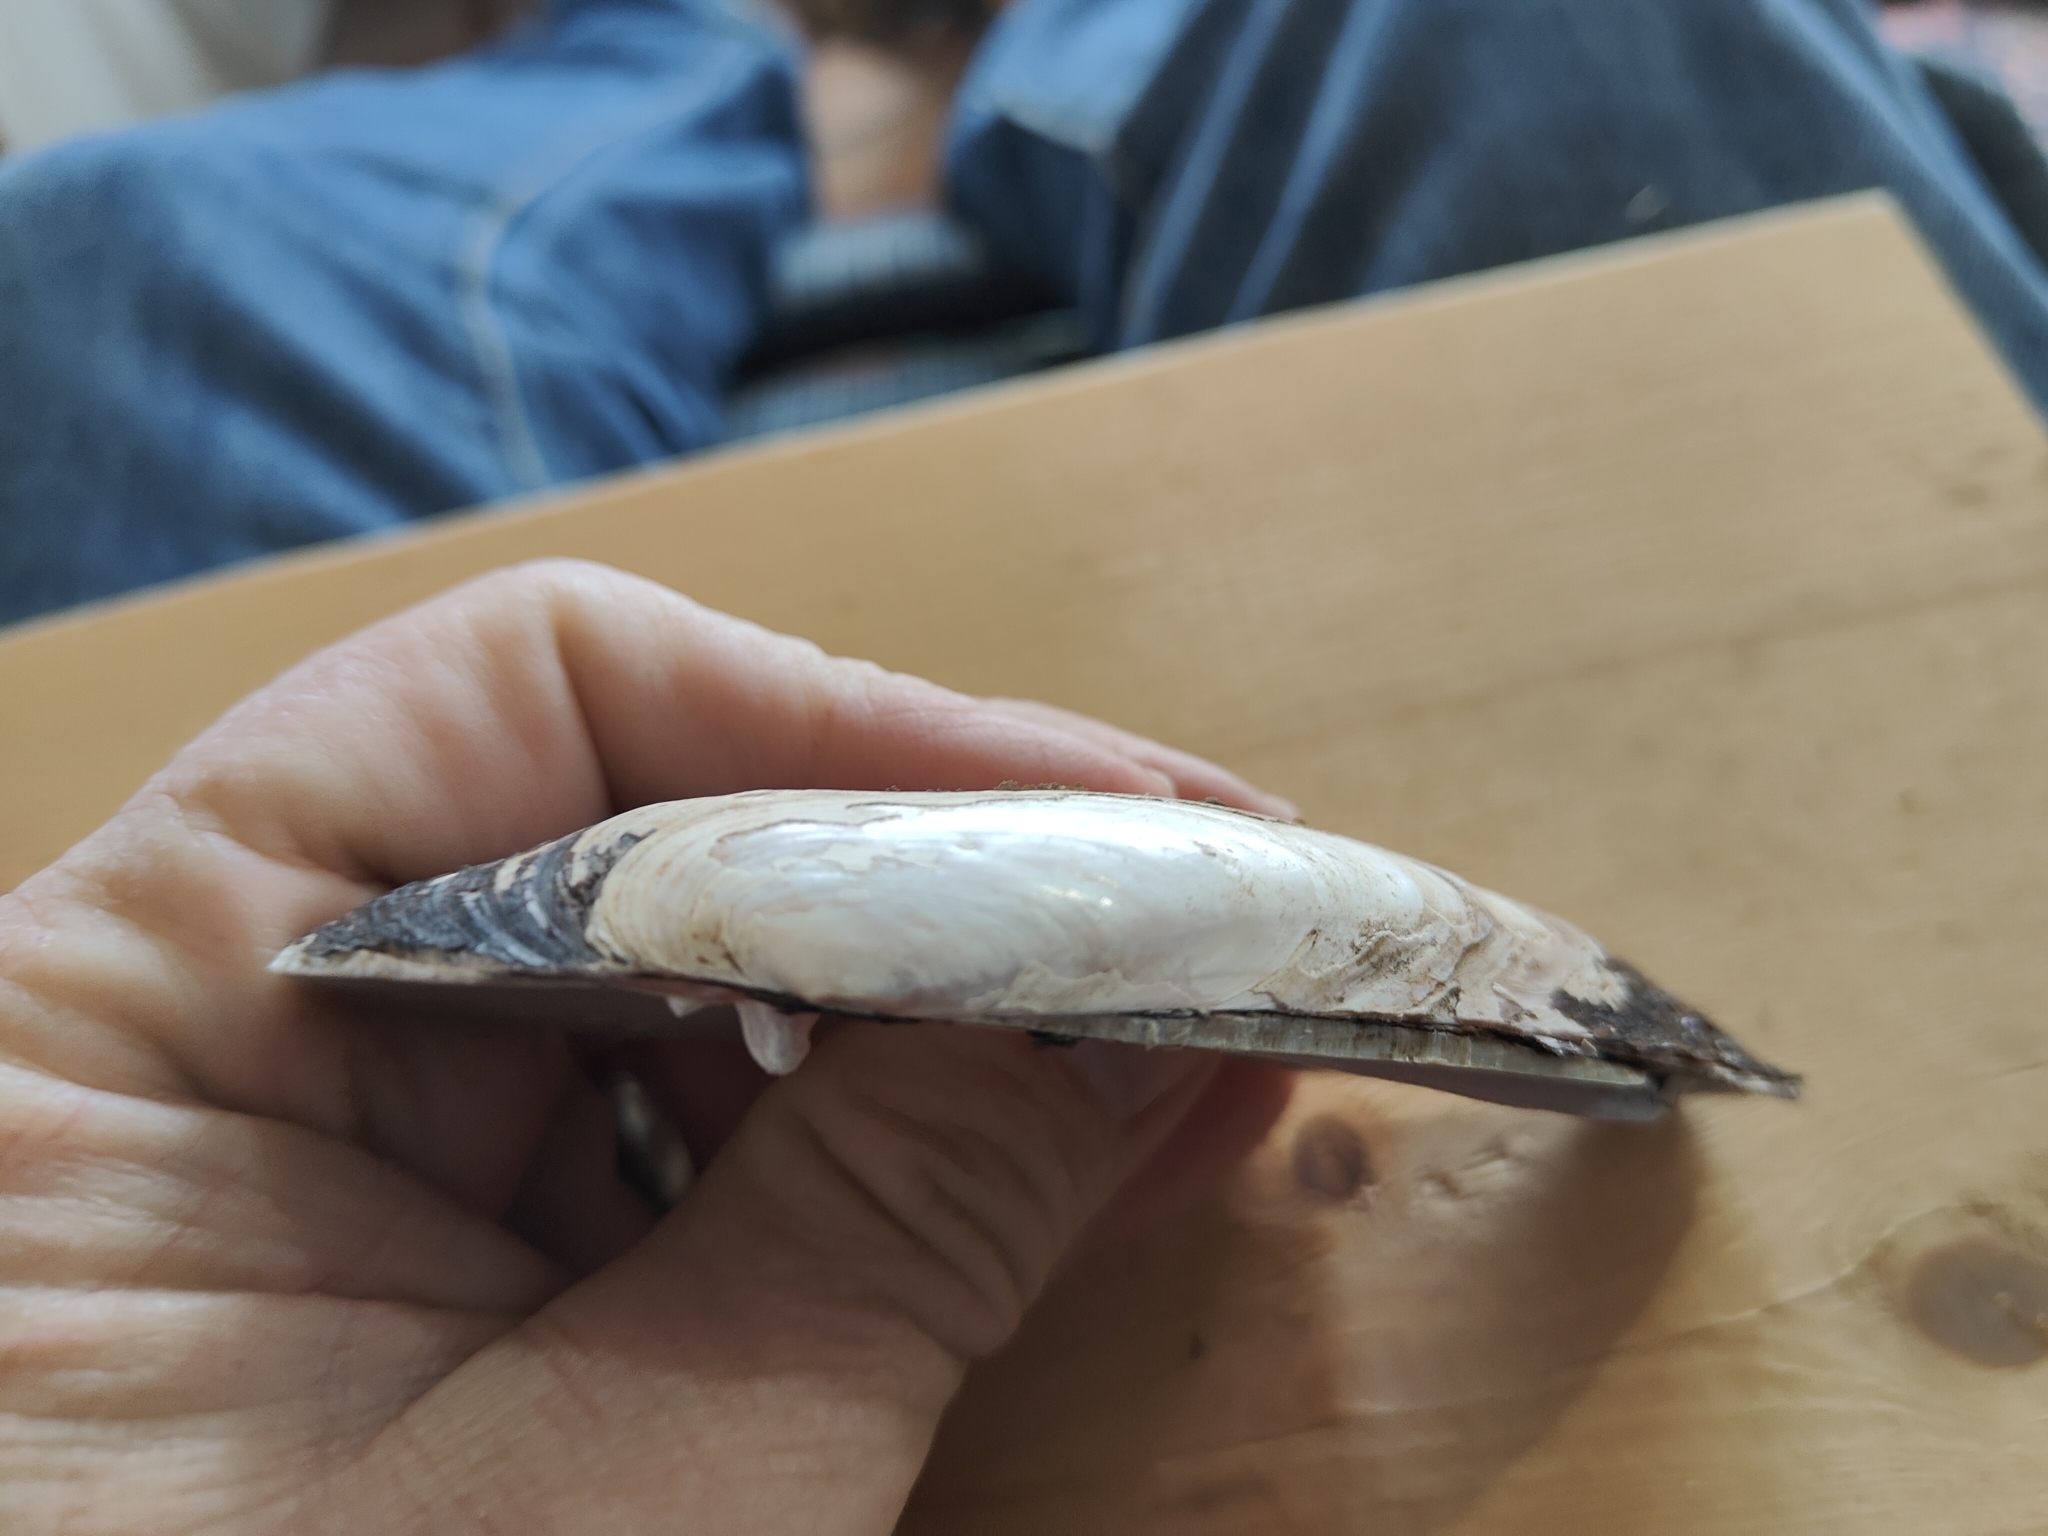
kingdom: Animalia
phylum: Mollusca
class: Bivalvia
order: Unionida
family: Unionidae
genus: Ligumia
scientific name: Ligumia recta
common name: Black sandshell
